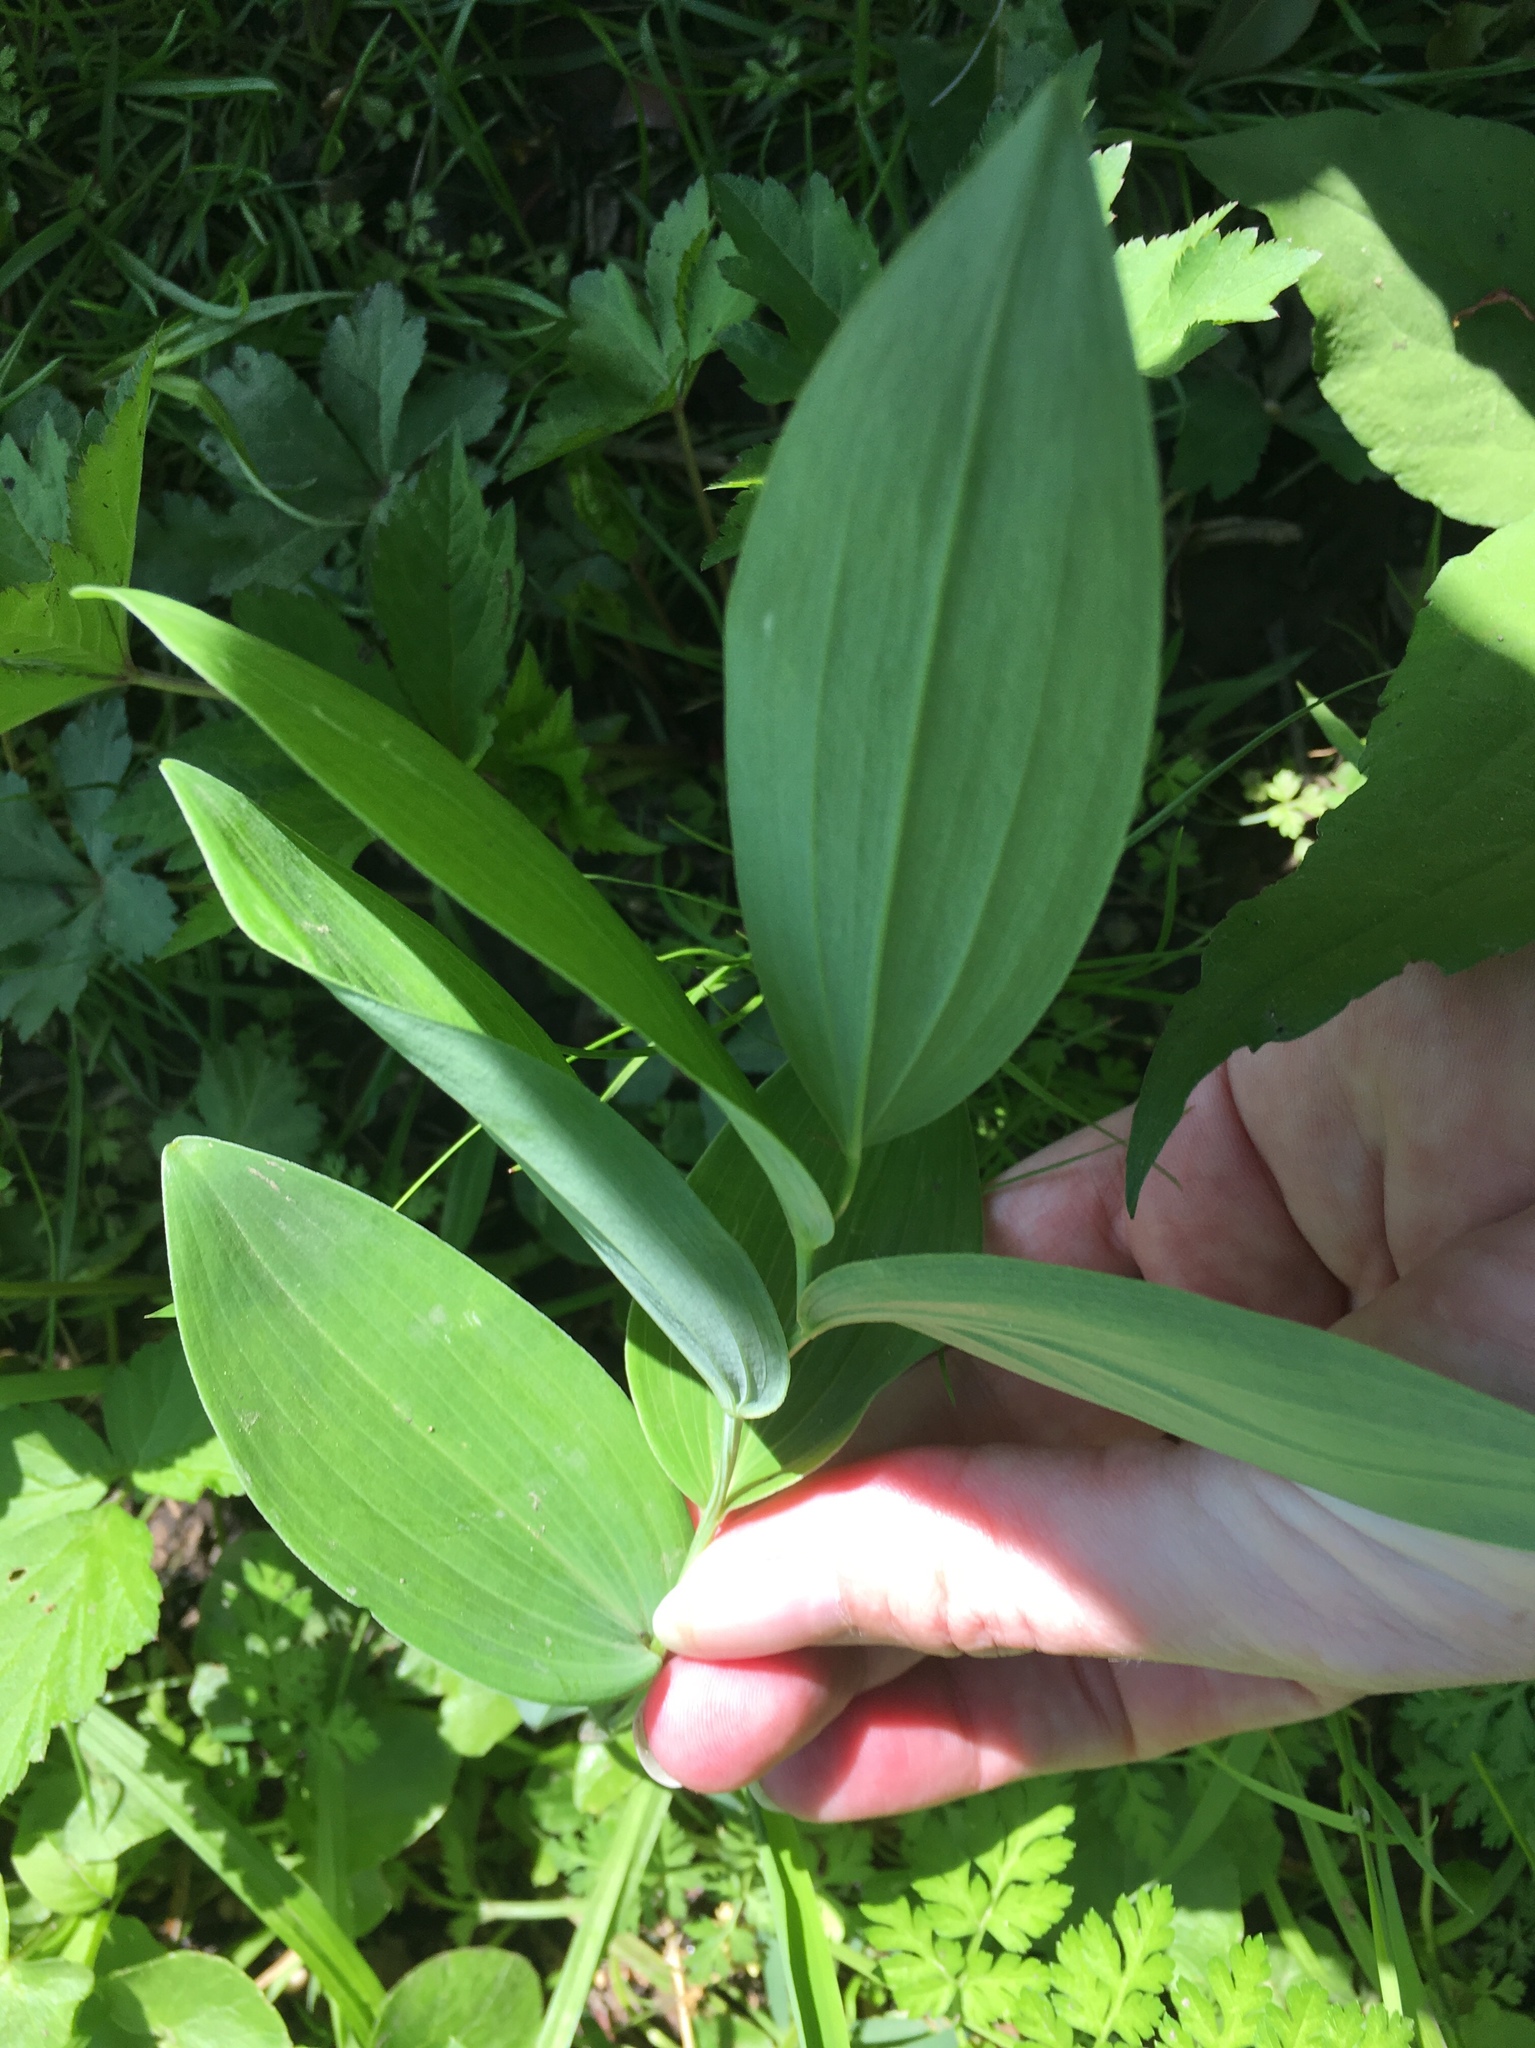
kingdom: Plantae
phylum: Tracheophyta
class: Liliopsida
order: Asparagales
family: Asparagaceae
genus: Polygonatum
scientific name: Polygonatum biflorum
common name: American solomon's-seal
